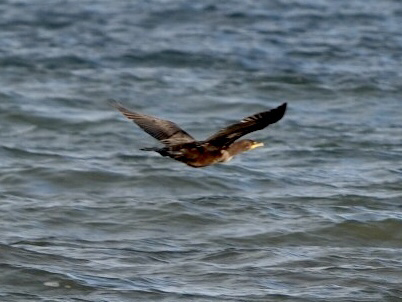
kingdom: Animalia
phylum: Chordata
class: Aves
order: Suliformes
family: Phalacrocoracidae
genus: Phalacrocorax
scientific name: Phalacrocorax auritus
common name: Double-crested cormorant
